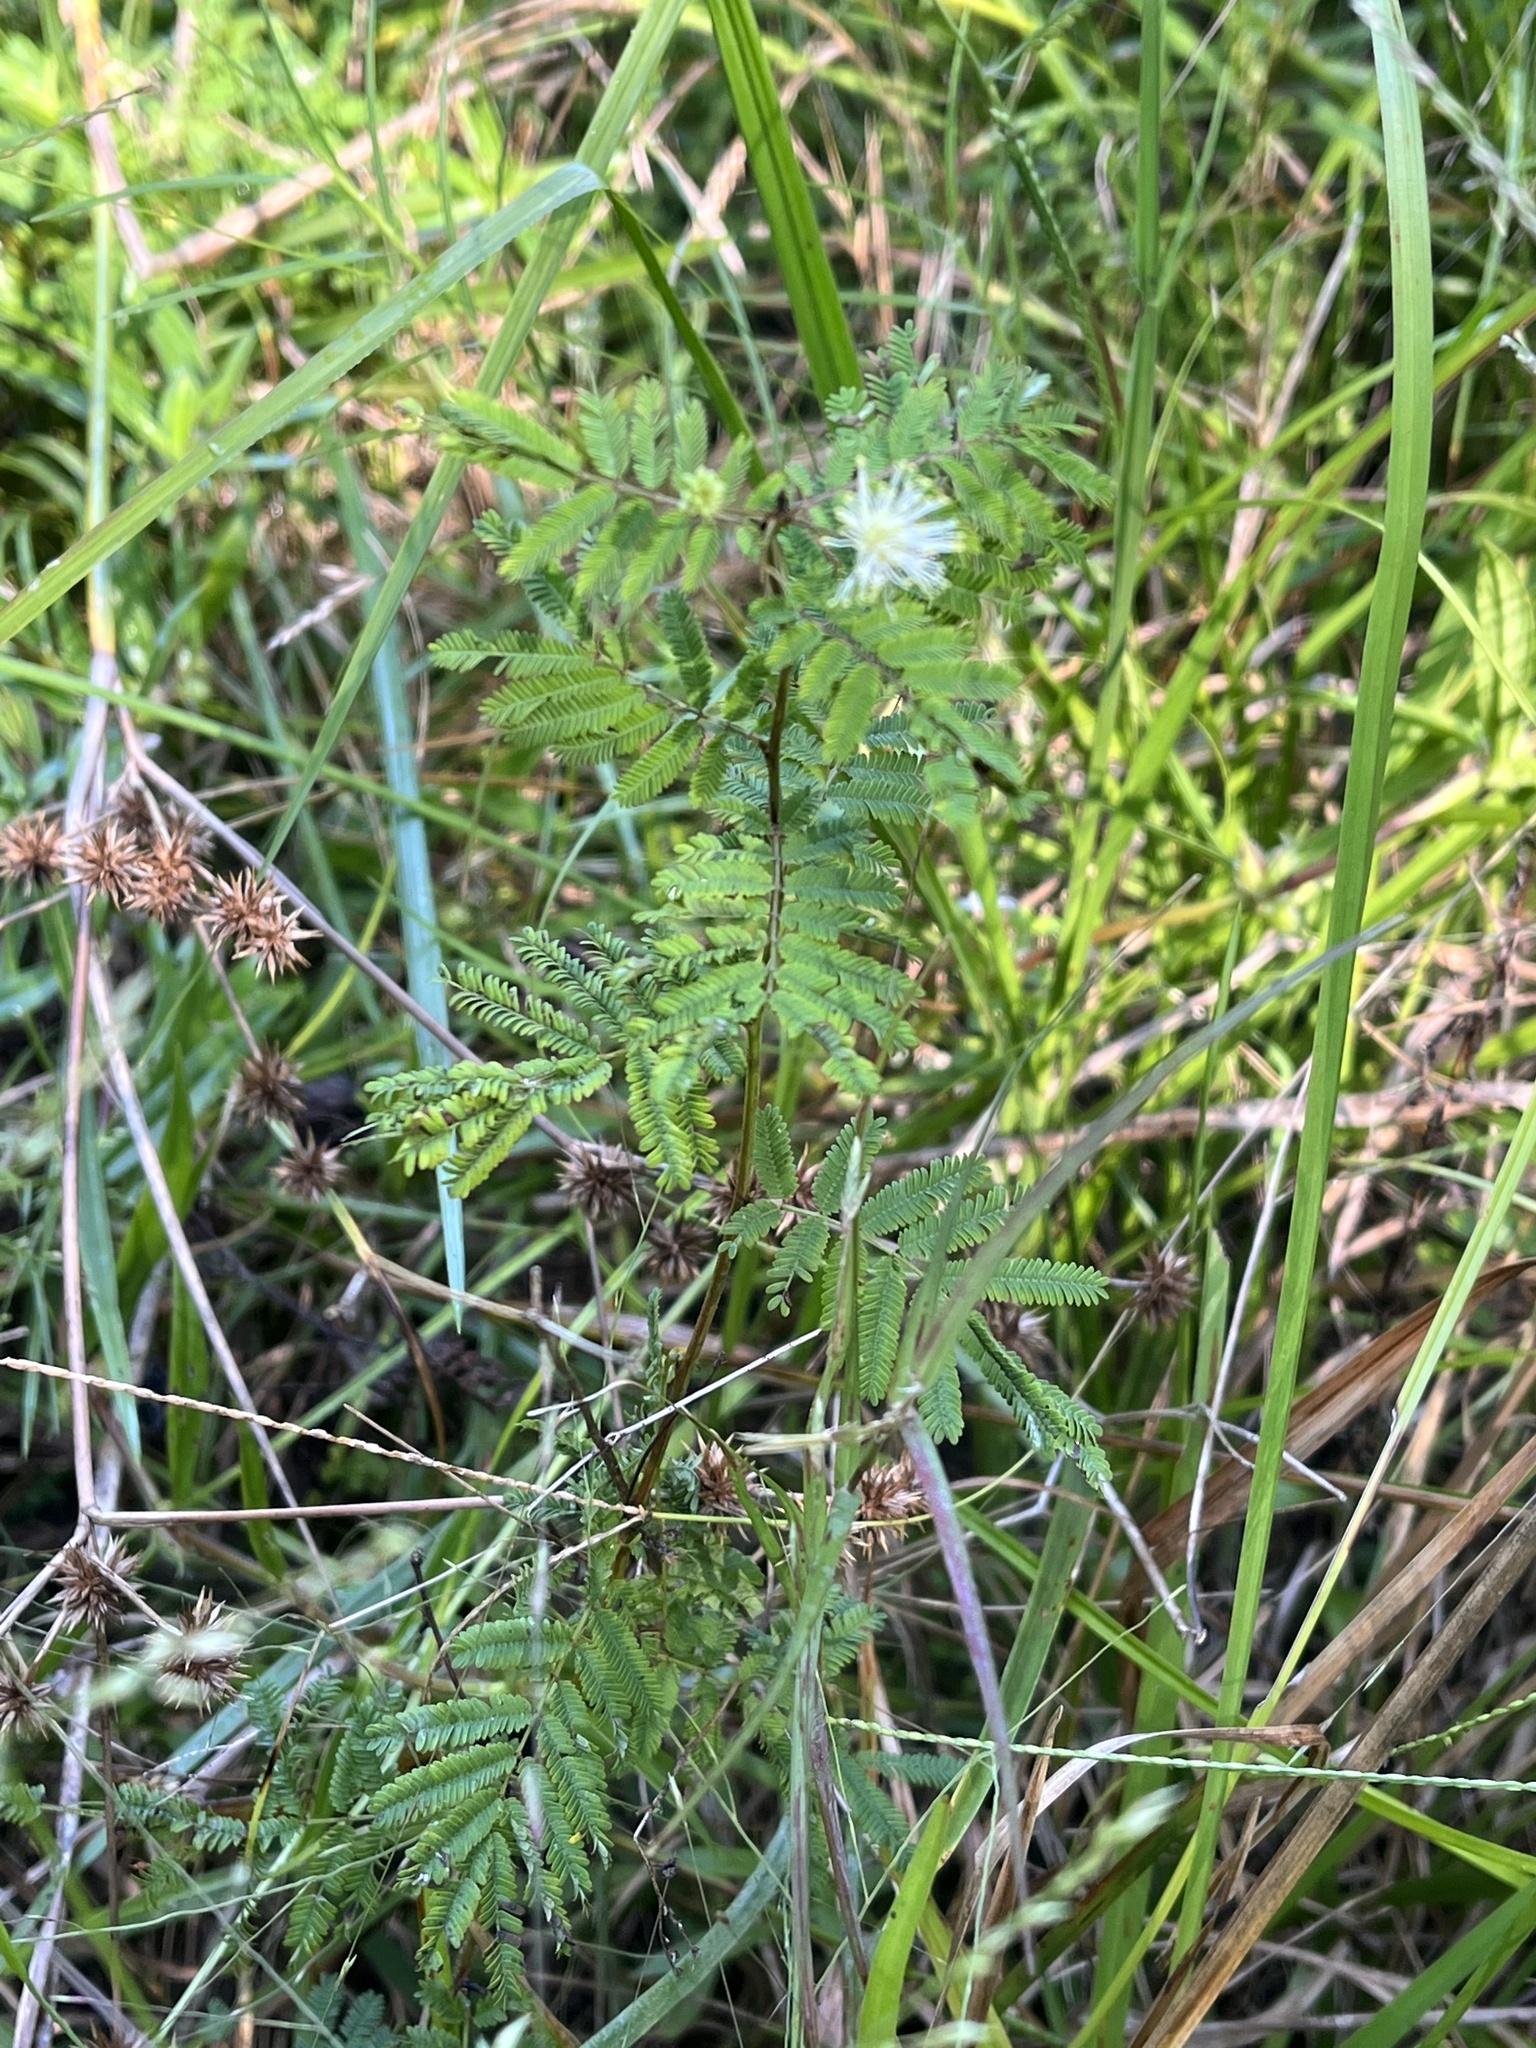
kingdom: Plantae
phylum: Tracheophyta
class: Magnoliopsida
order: Fabales
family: Fabaceae
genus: Desmanthus
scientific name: Desmanthus illinoensis
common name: Illinois bundle-flower
